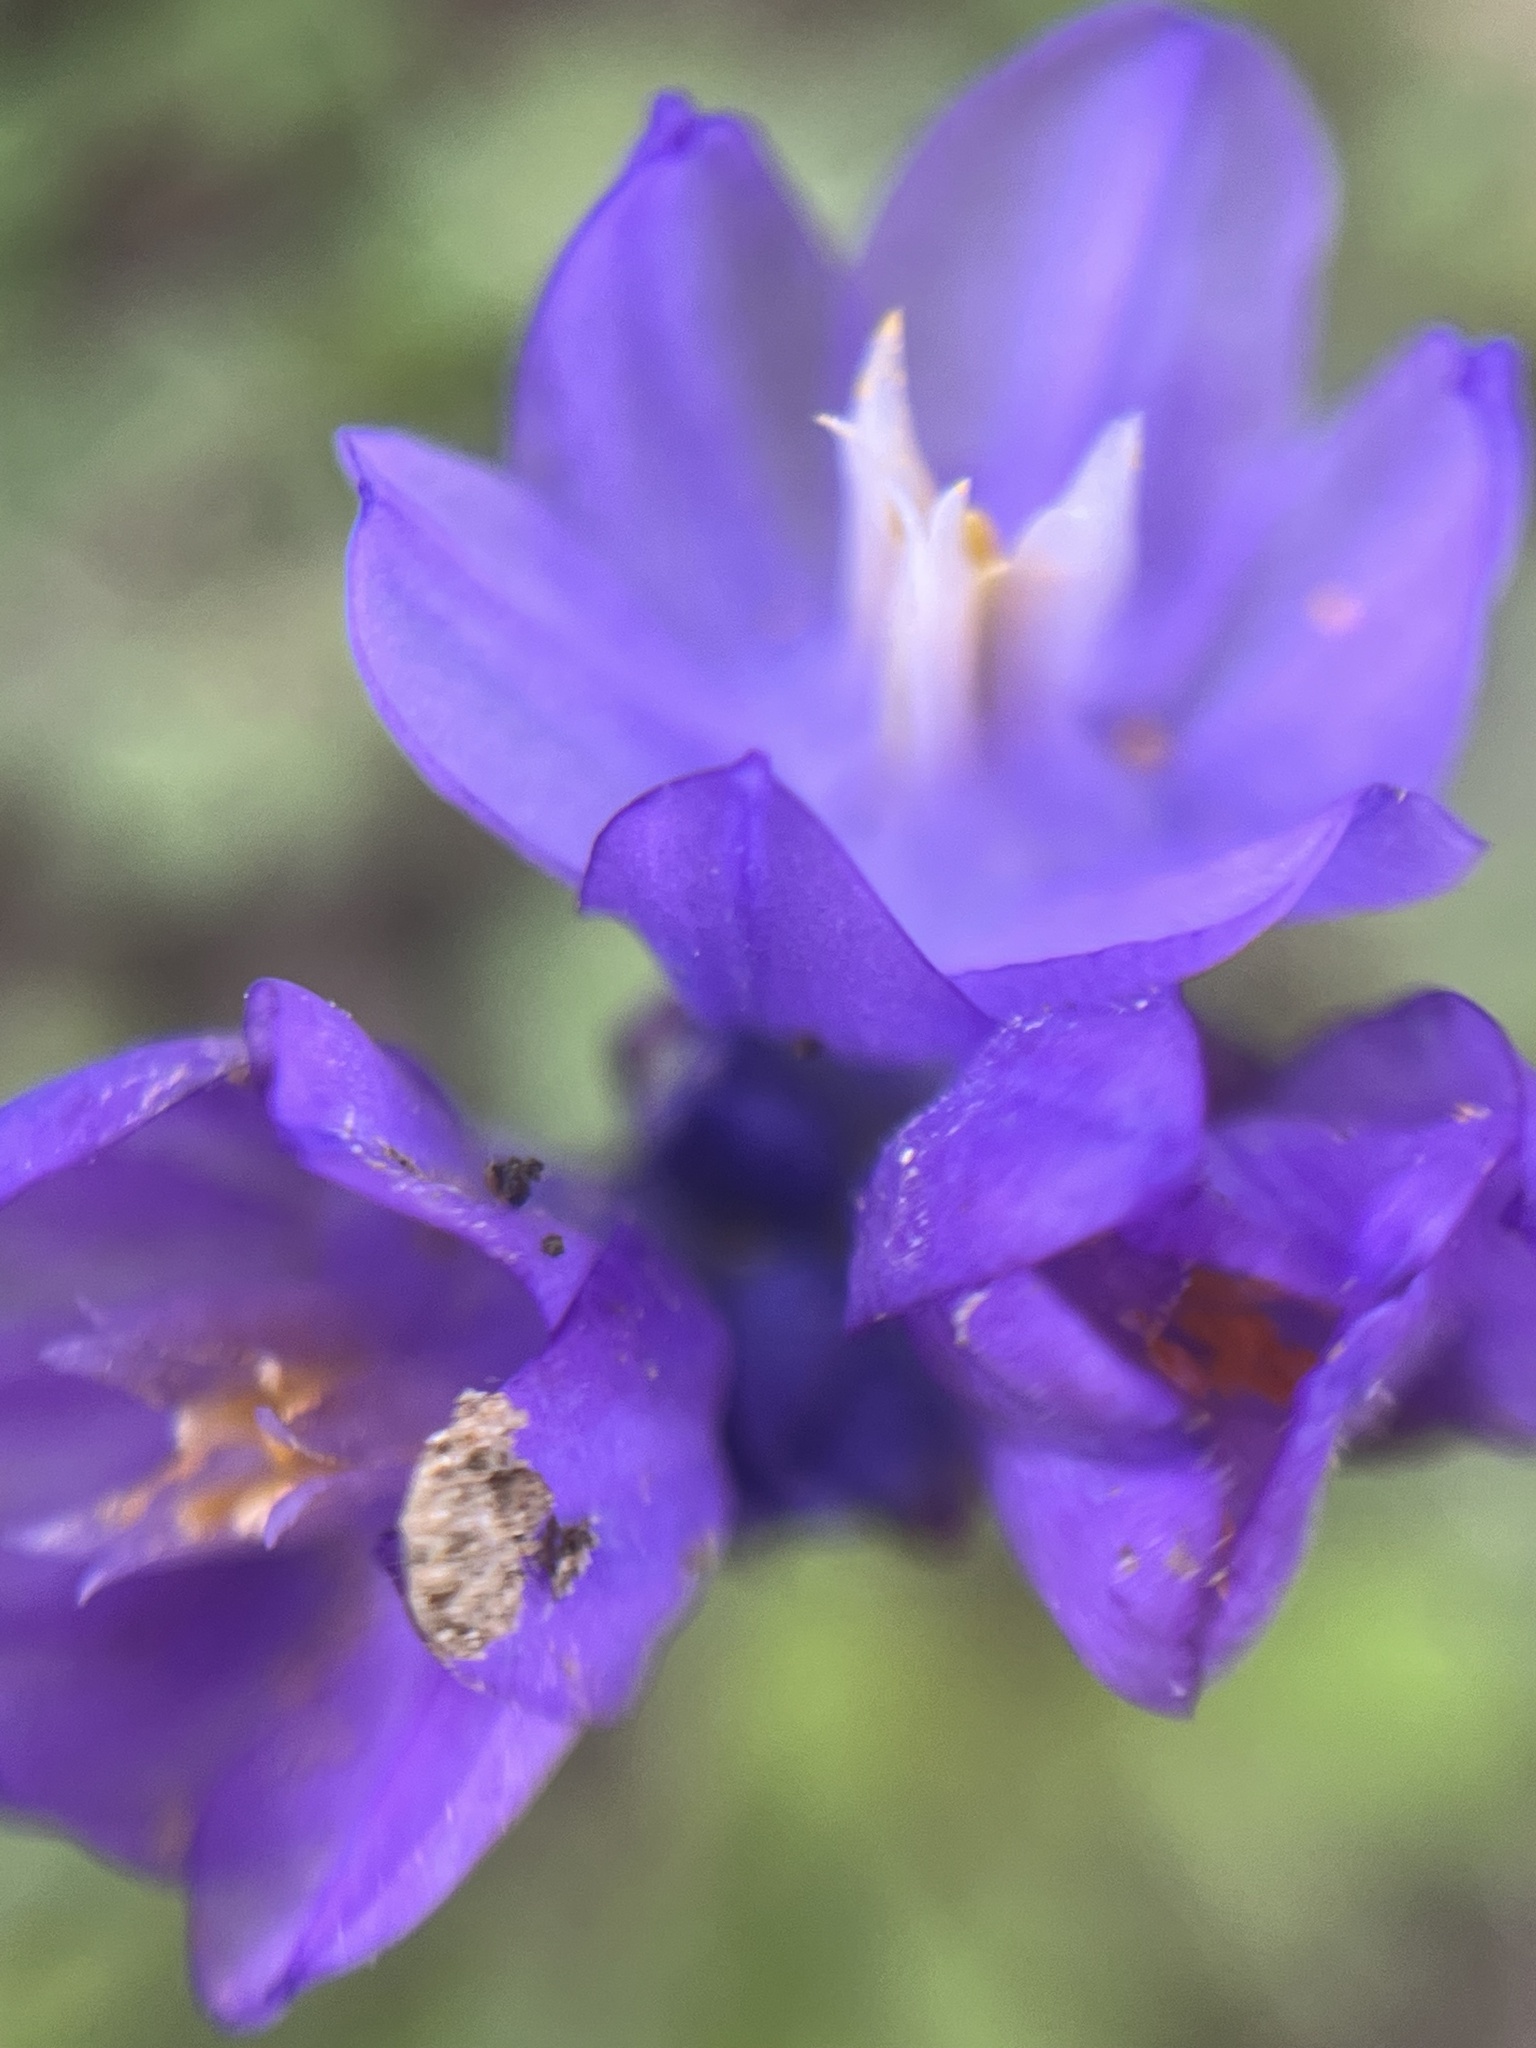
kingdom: Plantae
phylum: Tracheophyta
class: Liliopsida
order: Asparagales
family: Asparagaceae
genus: Dipterostemon
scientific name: Dipterostemon capitatus
